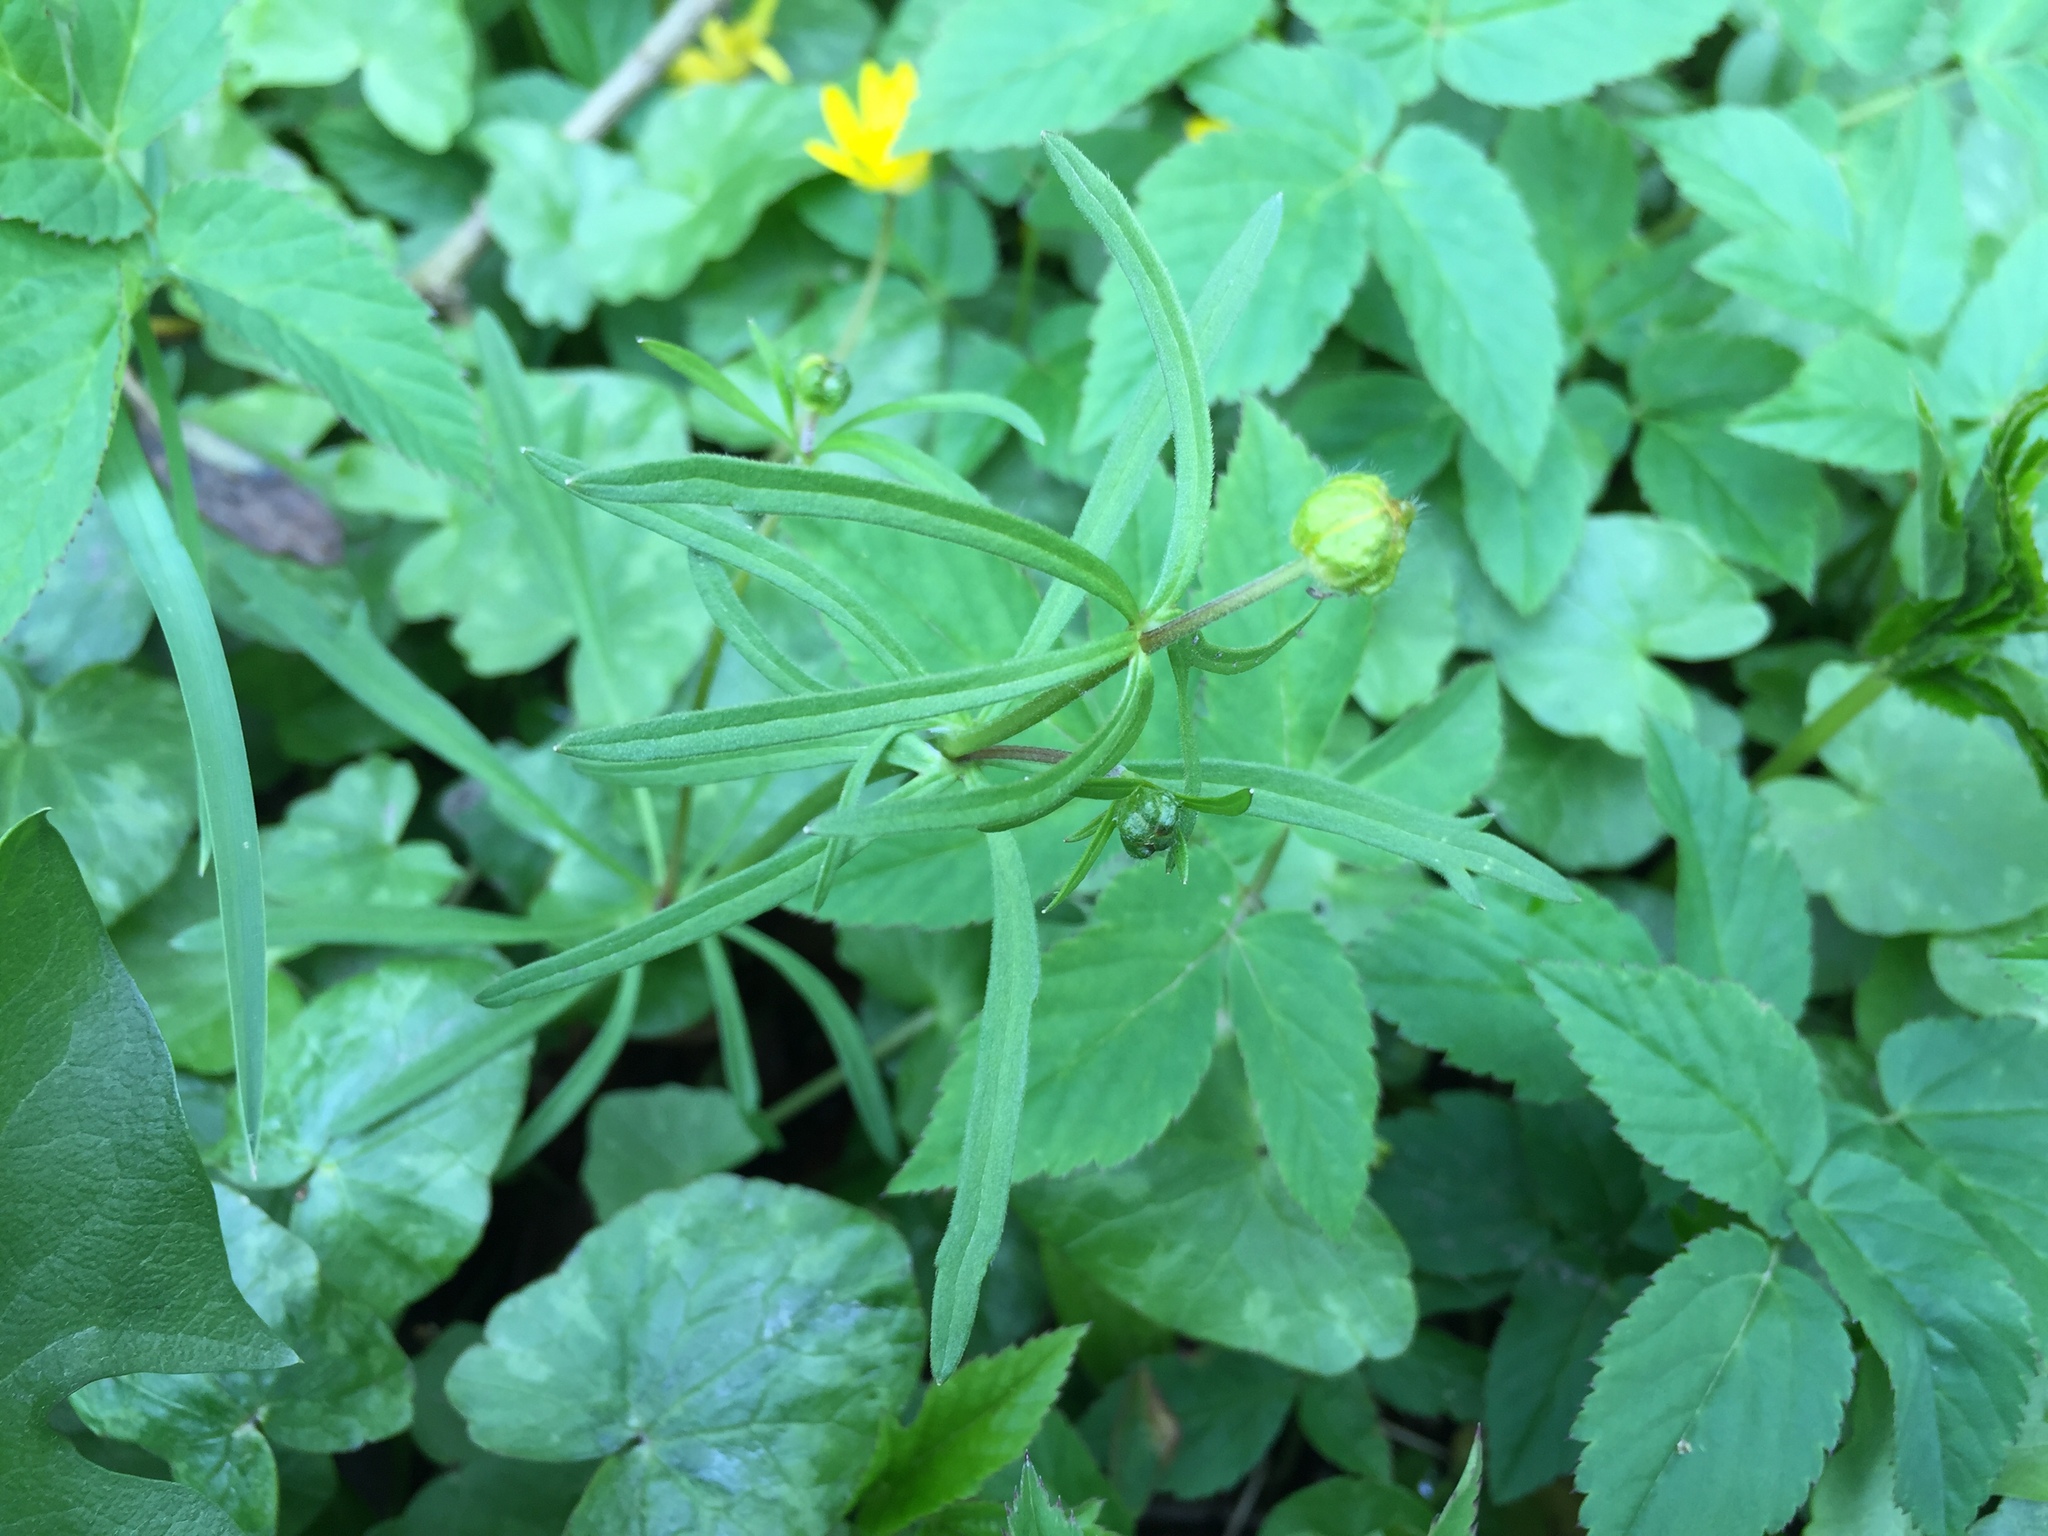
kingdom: Plantae
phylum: Tracheophyta
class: Magnoliopsida
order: Ranunculales
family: Ranunculaceae
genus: Ranunculus
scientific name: Ranunculus auricomus
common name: Goldilocks buttercup
